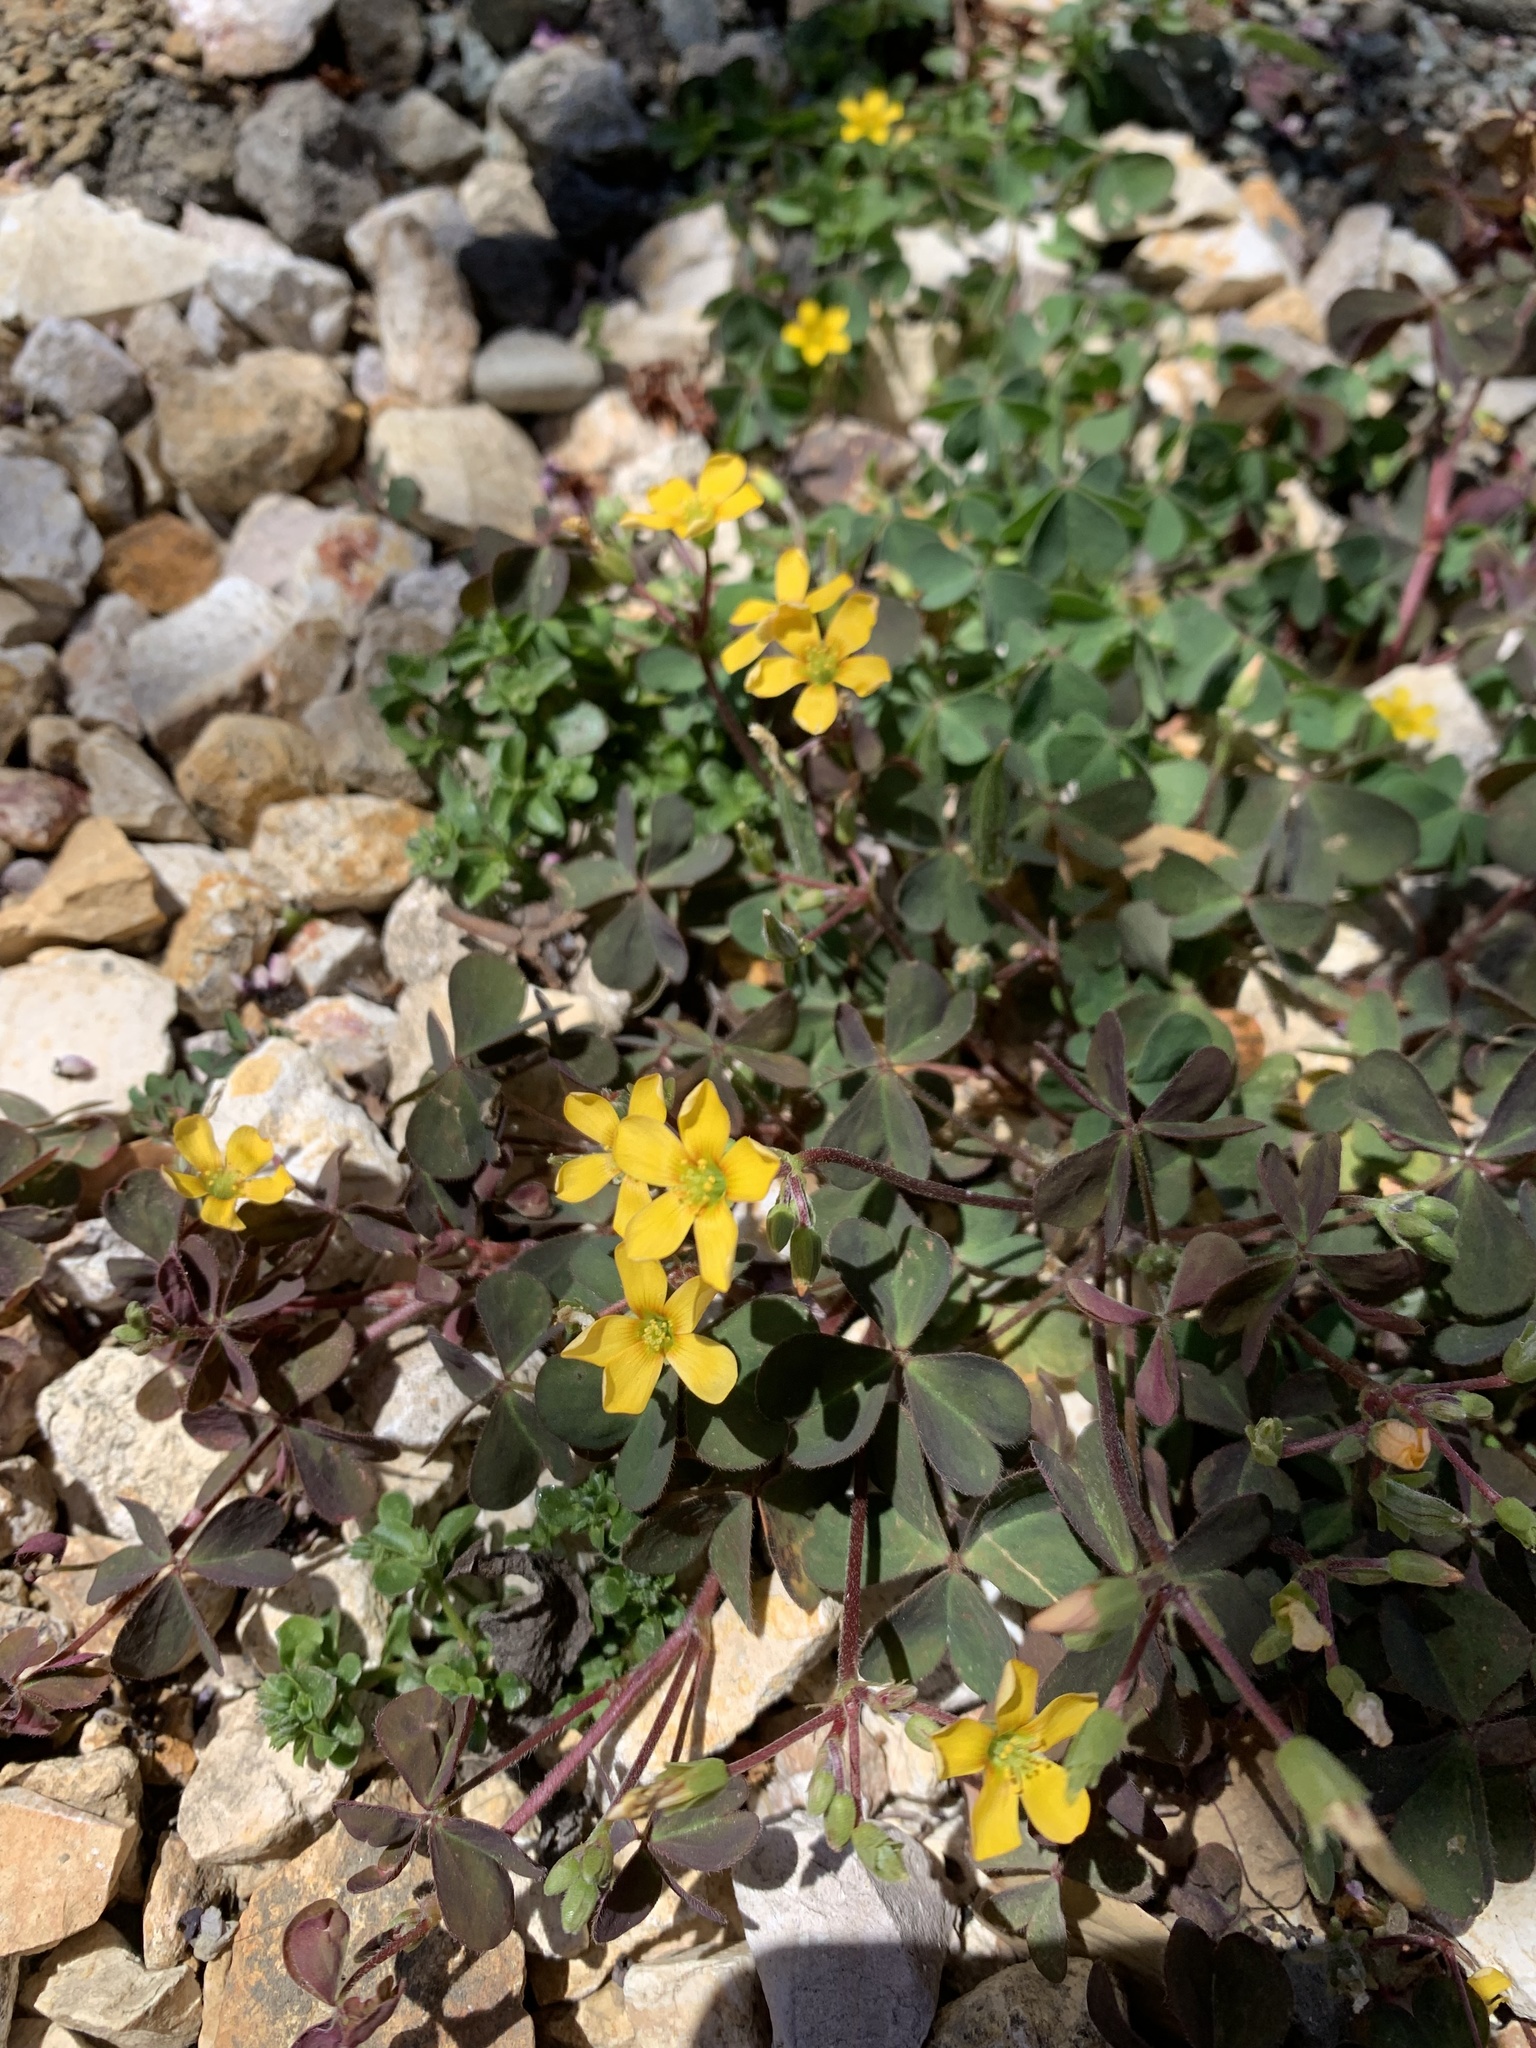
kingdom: Plantae
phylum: Tracheophyta
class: Magnoliopsida
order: Oxalidales
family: Oxalidaceae
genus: Oxalis
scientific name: Oxalis corniculata
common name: Procumbent yellow-sorrel
